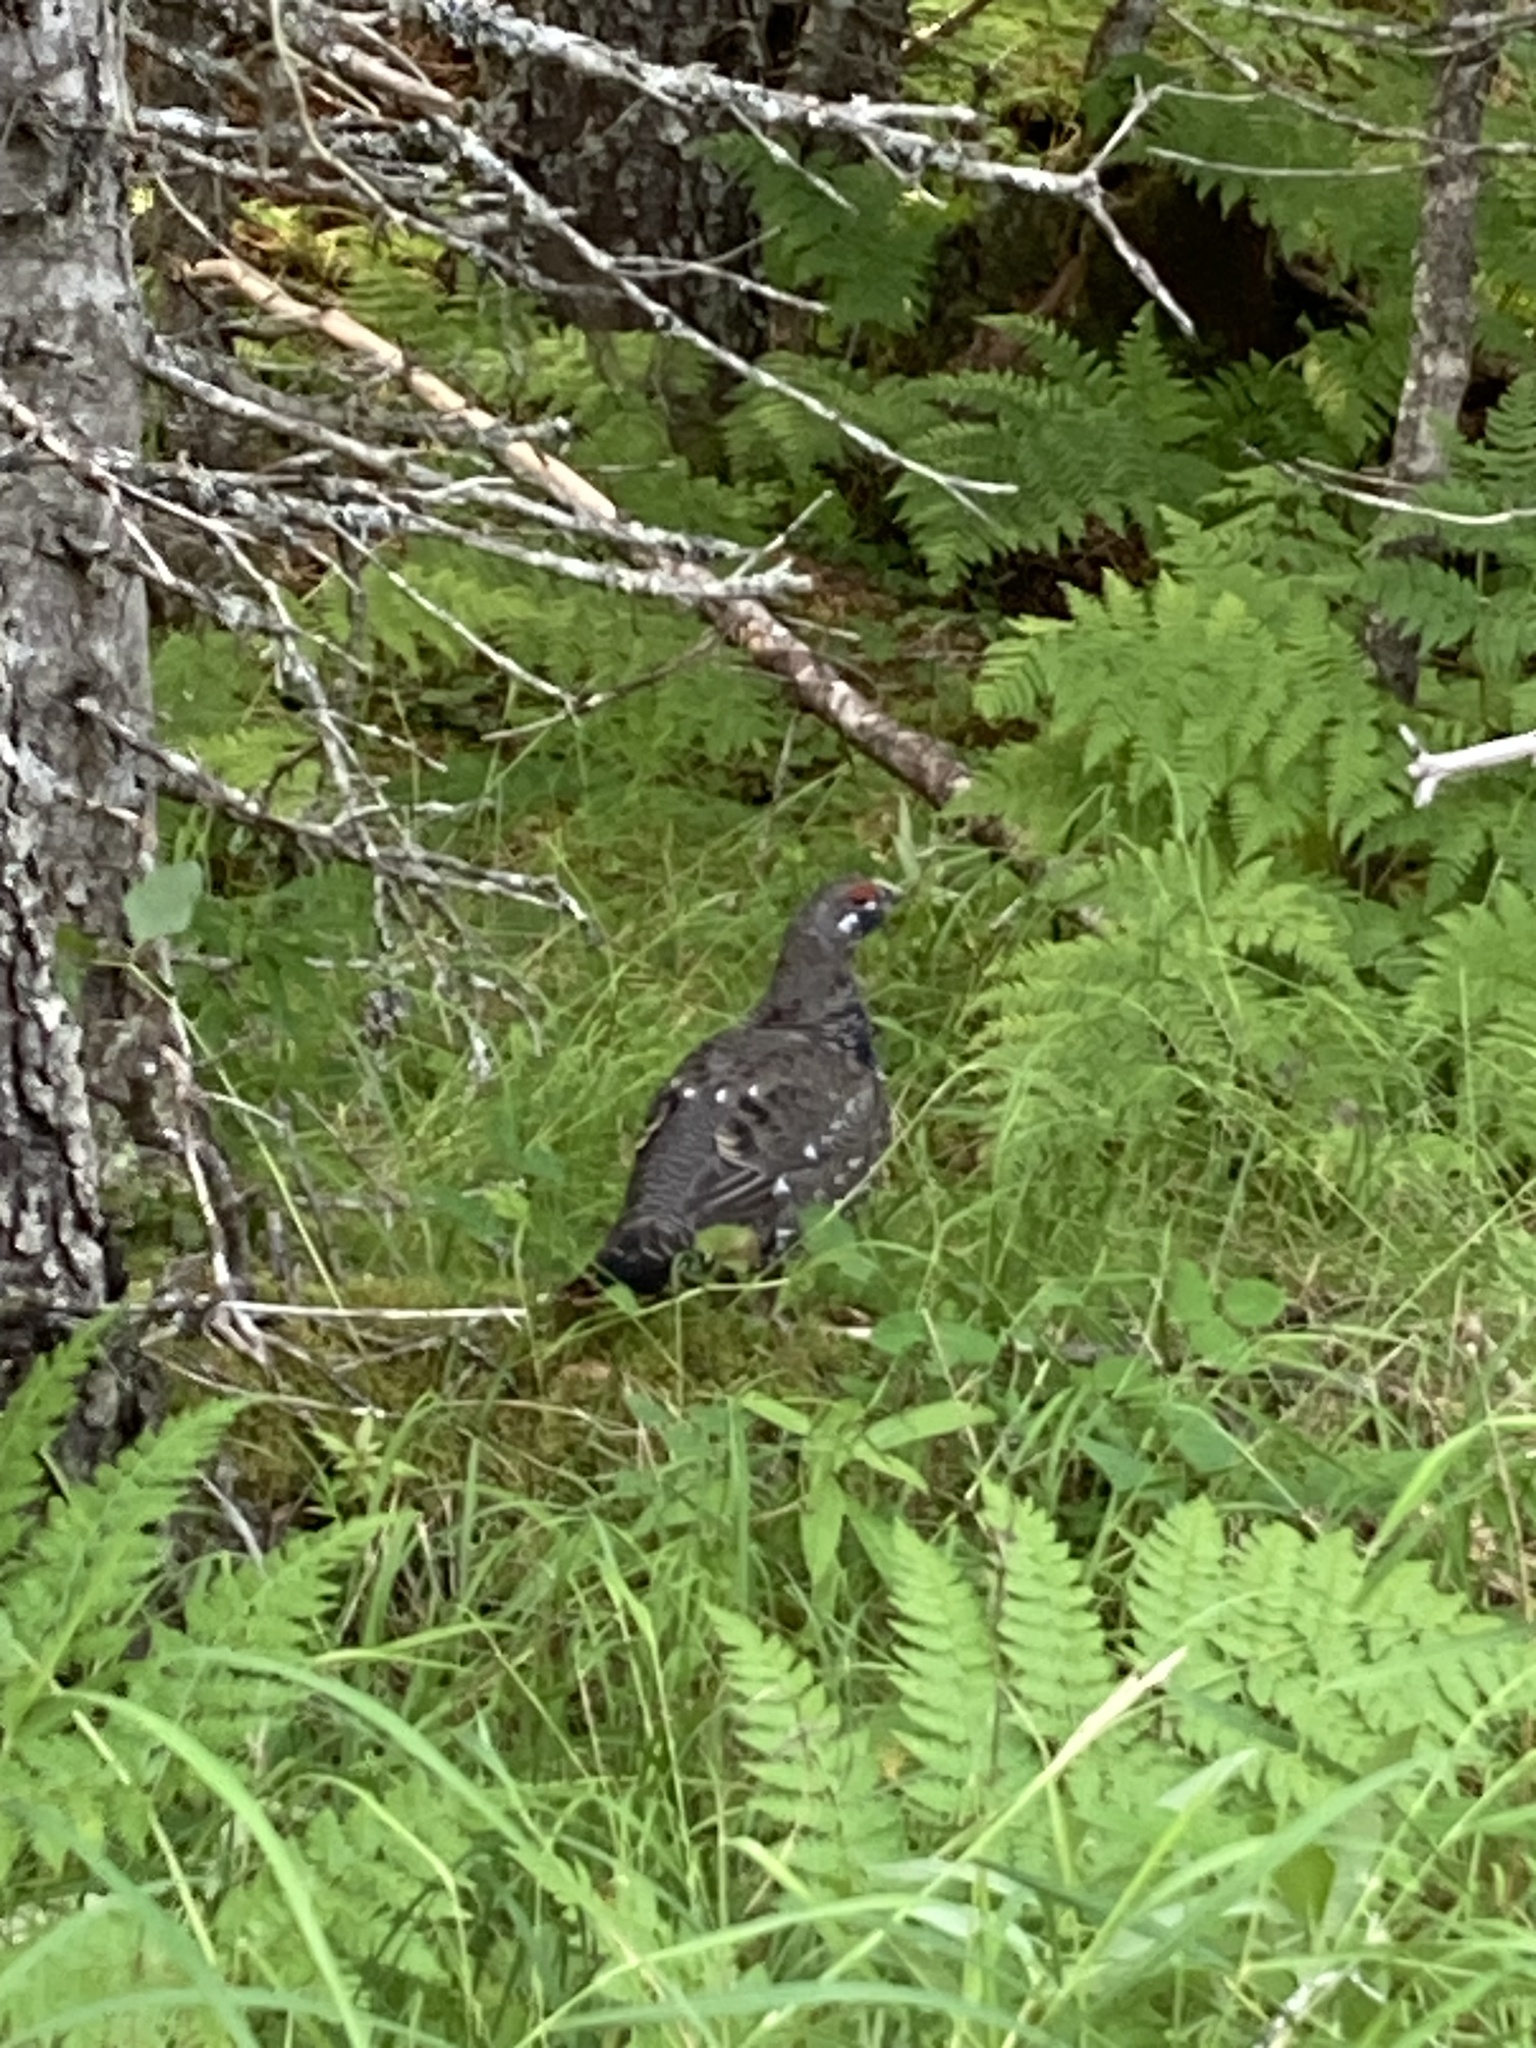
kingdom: Animalia
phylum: Chordata
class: Aves
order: Galliformes
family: Phasianidae
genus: Canachites
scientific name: Canachites canadensis
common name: Spruce grouse
